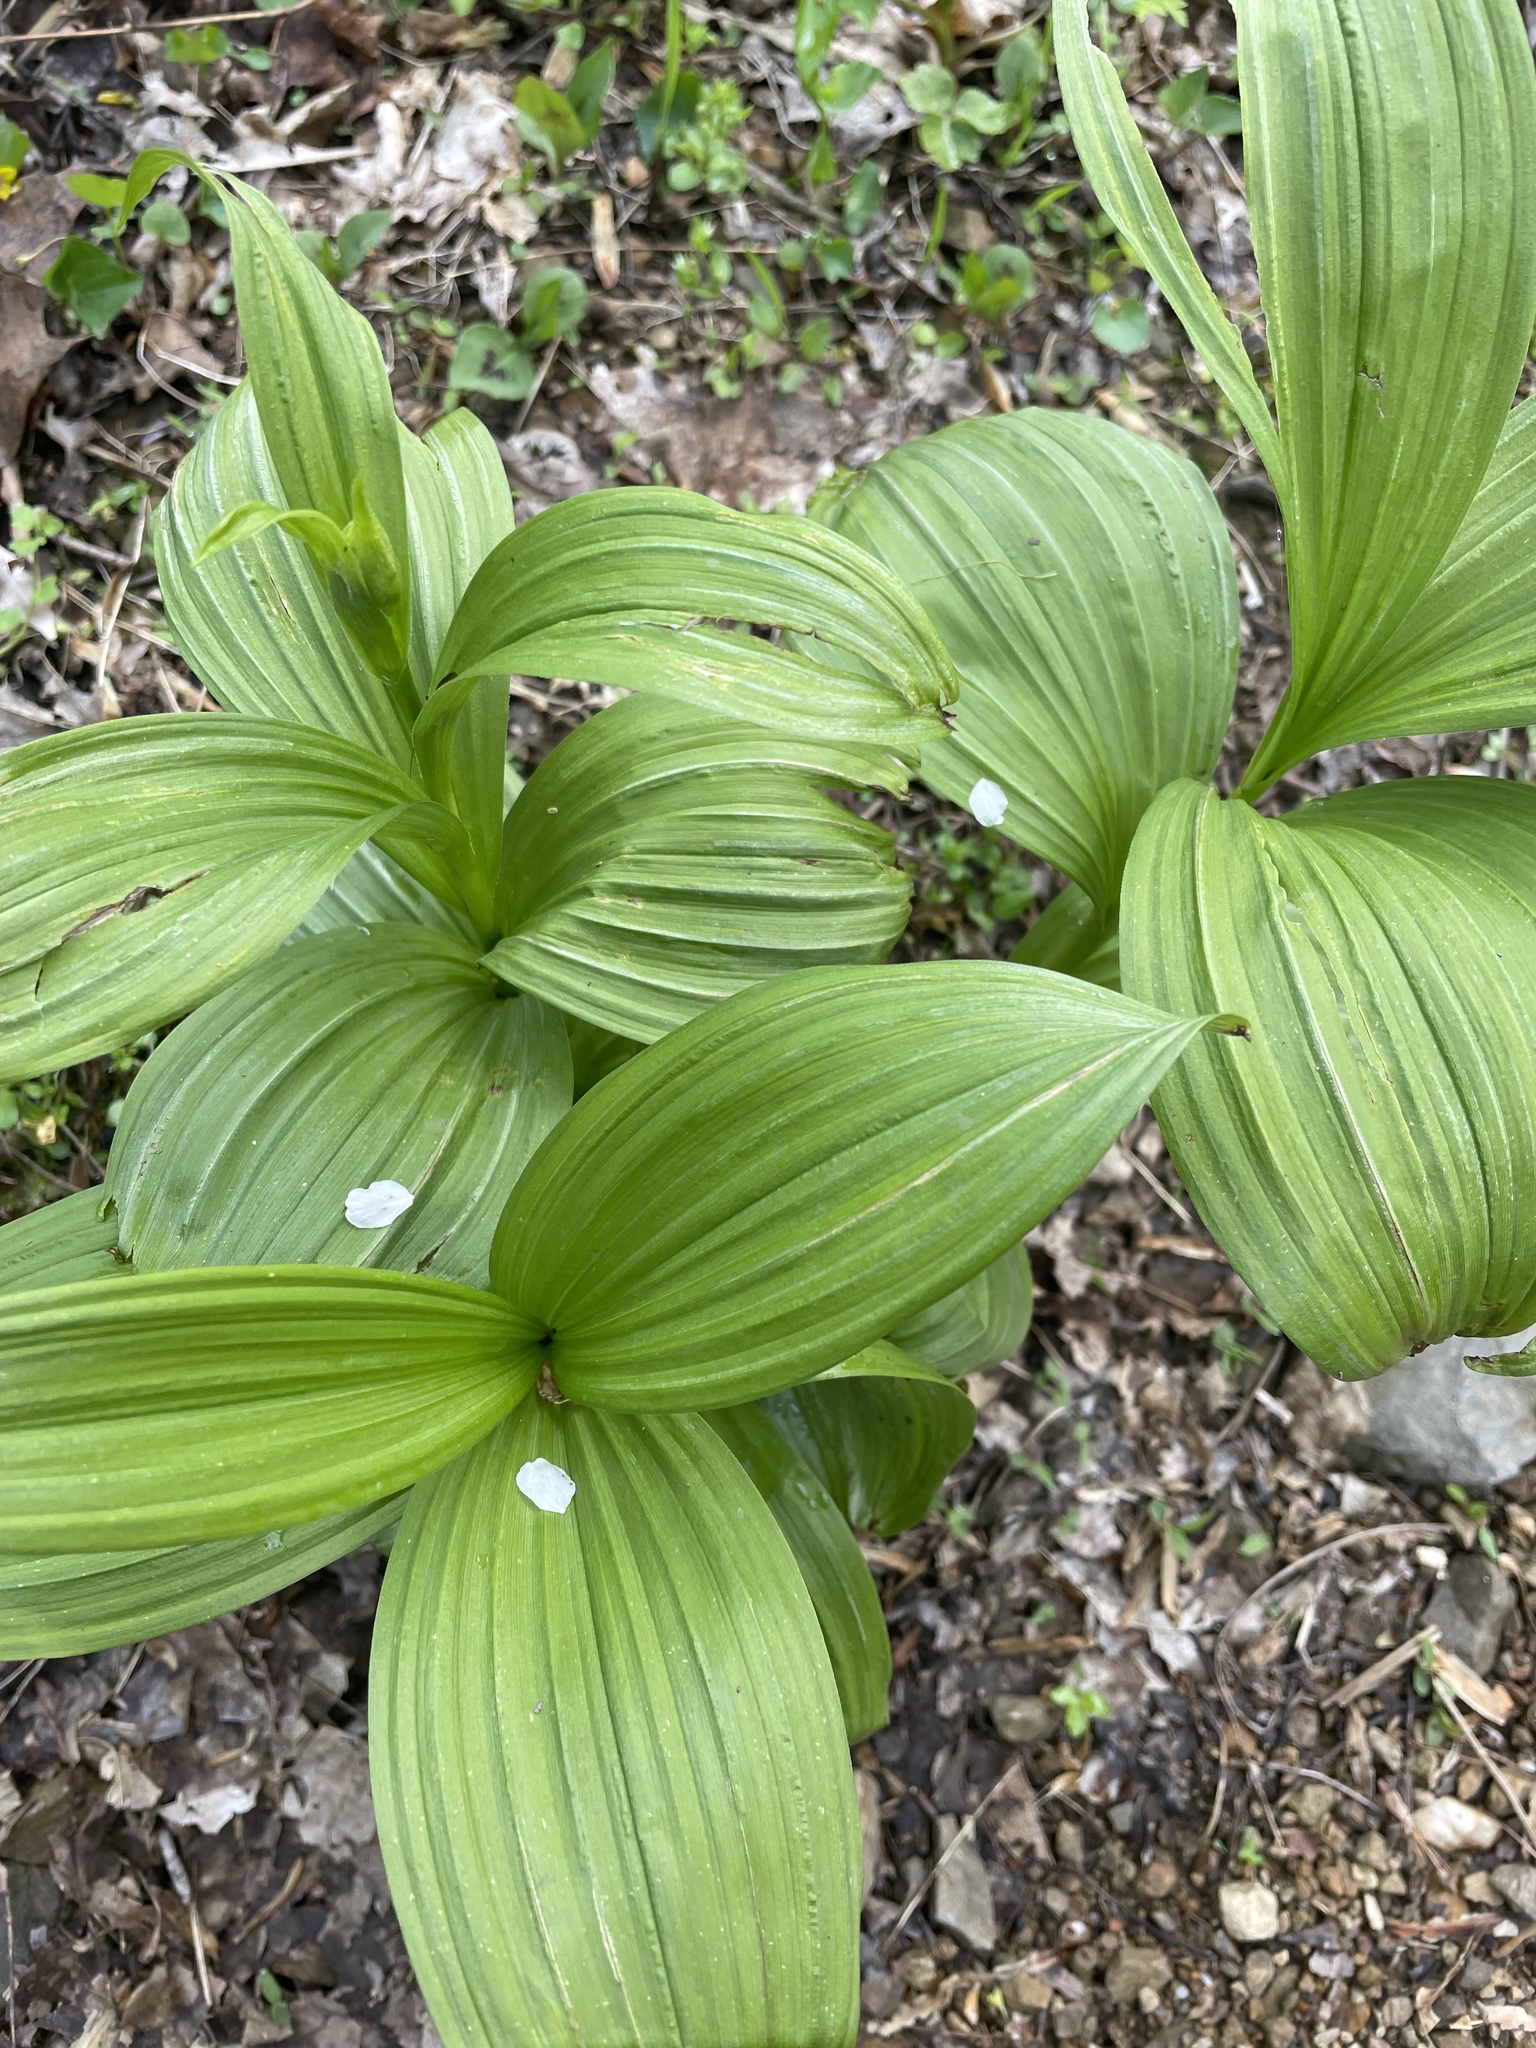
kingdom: Plantae
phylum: Tracheophyta
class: Liliopsida
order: Liliales
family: Melanthiaceae
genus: Veratrum
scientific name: Veratrum viride
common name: American false hellebore
